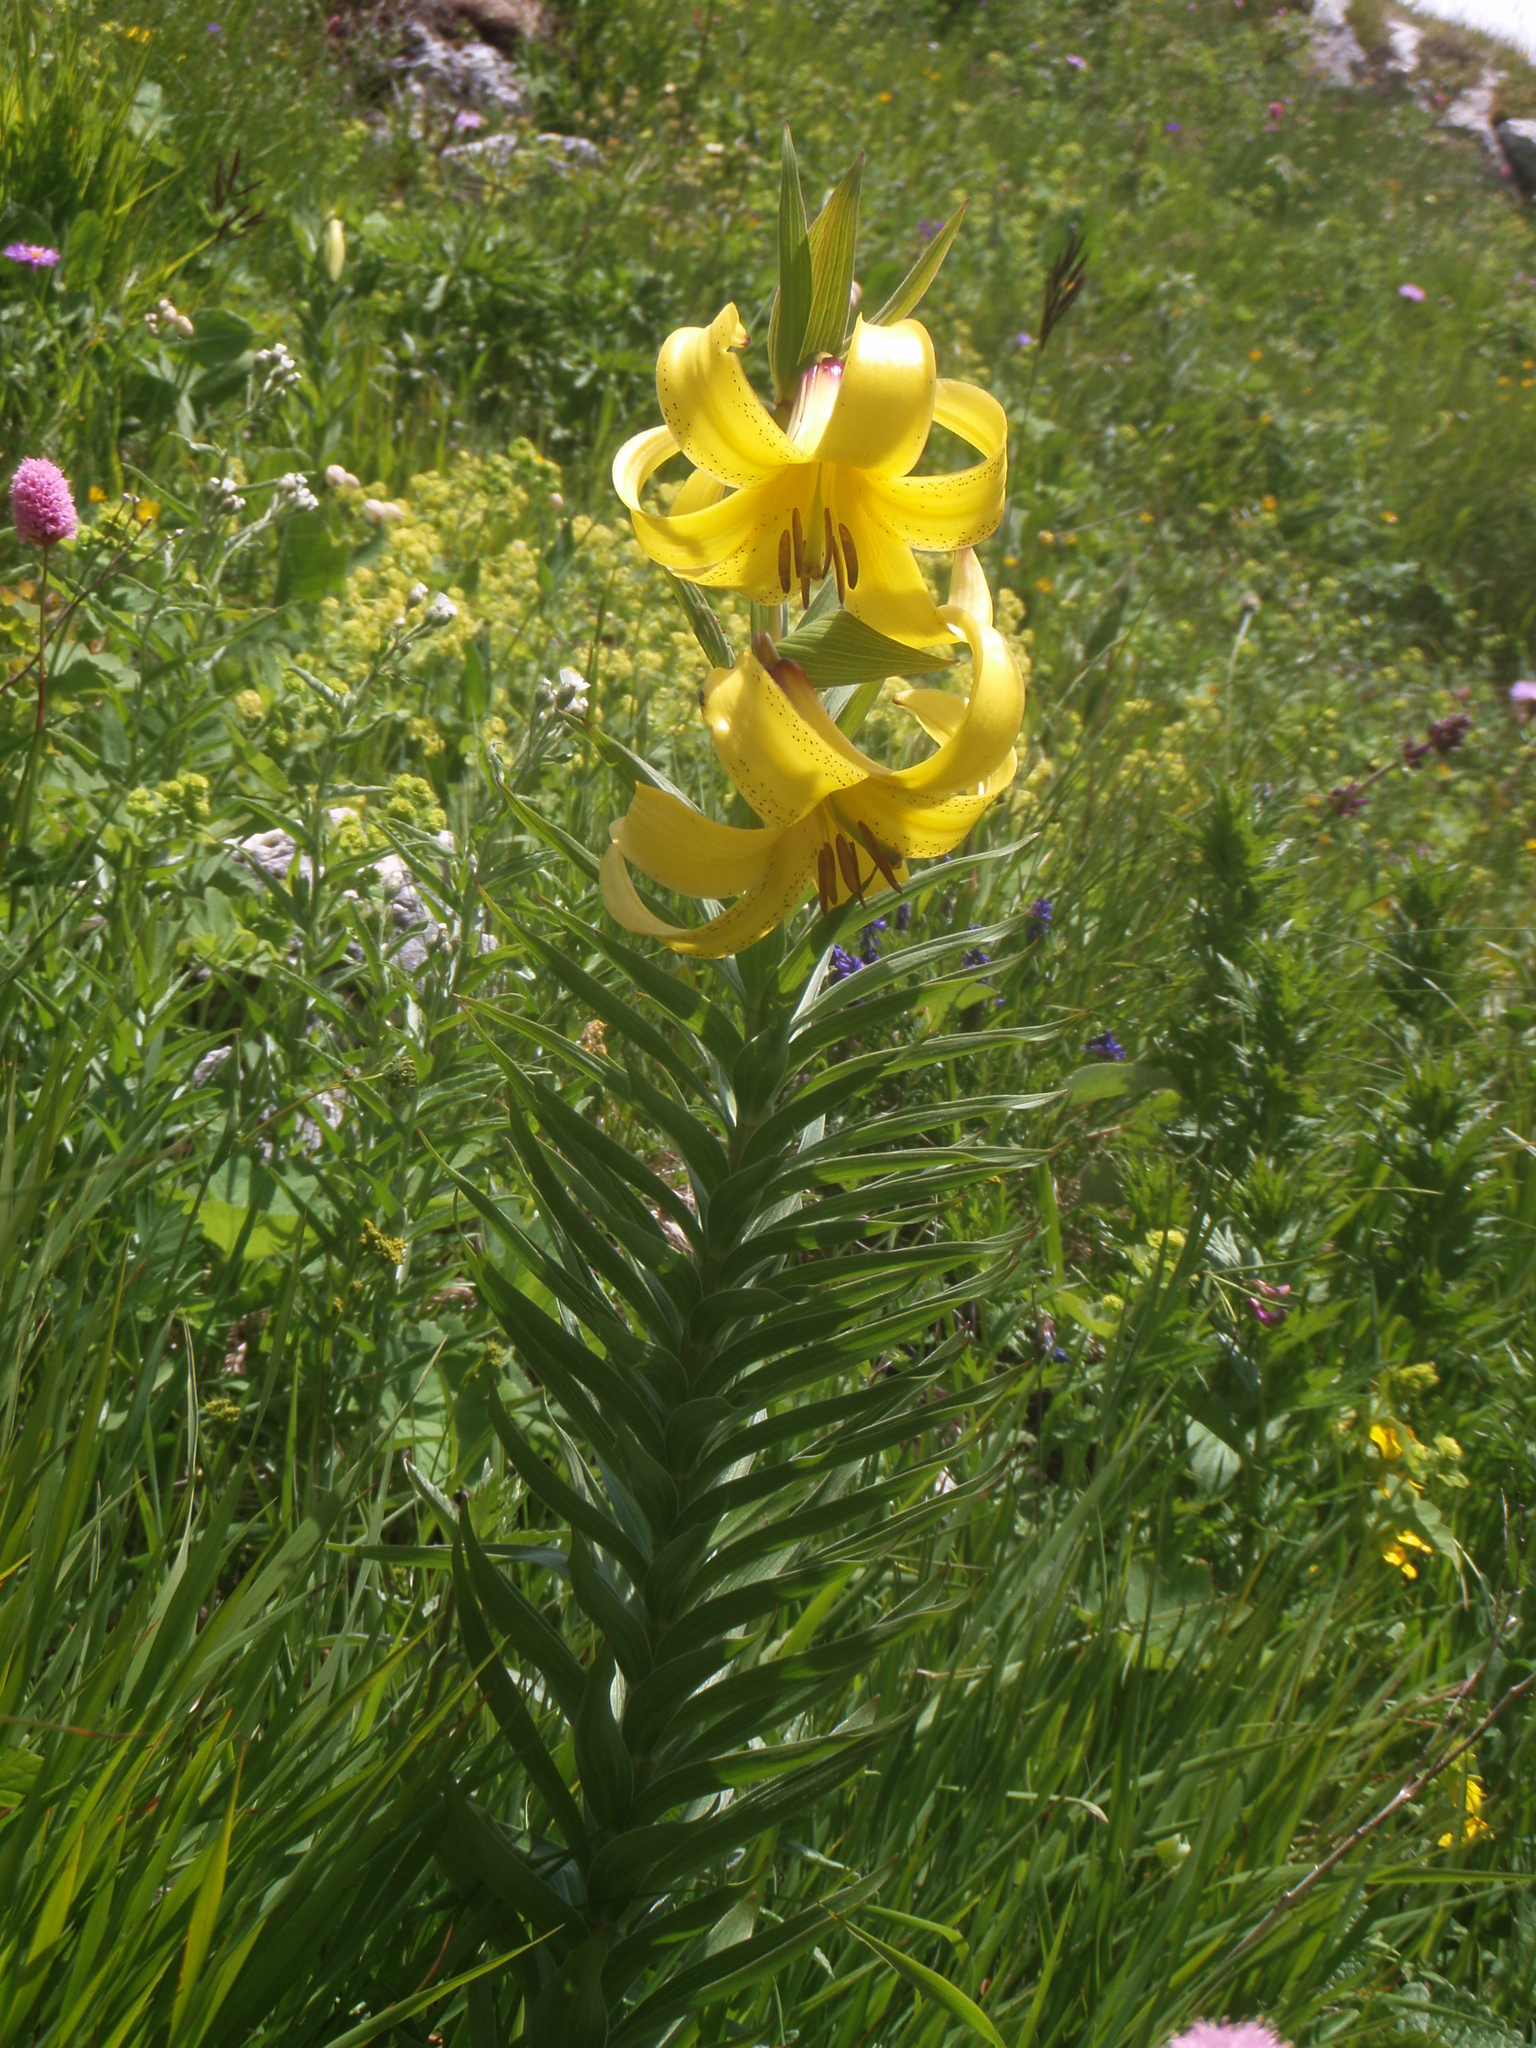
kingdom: Plantae
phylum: Tracheophyta
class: Liliopsida
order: Liliales
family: Liliaceae
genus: Lilium
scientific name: Lilium kesselringianum
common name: Kesselring lily
